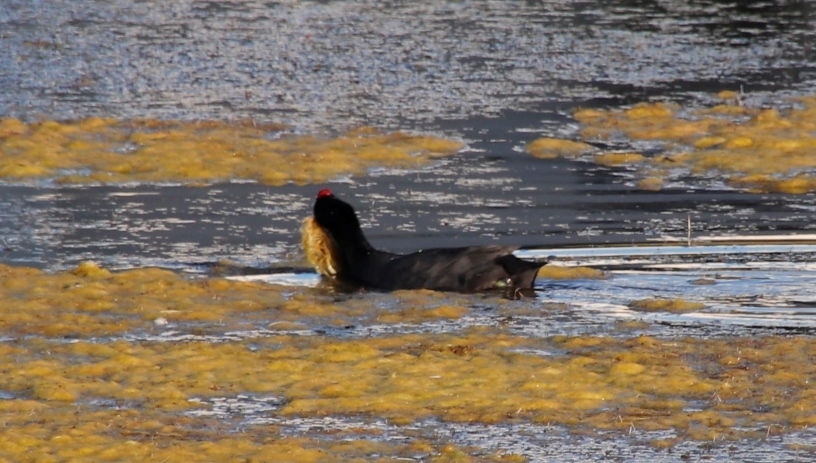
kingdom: Animalia
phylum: Chordata
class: Aves
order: Gruiformes
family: Rallidae
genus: Fulica
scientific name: Fulica cristata
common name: Red-knobbed coot
